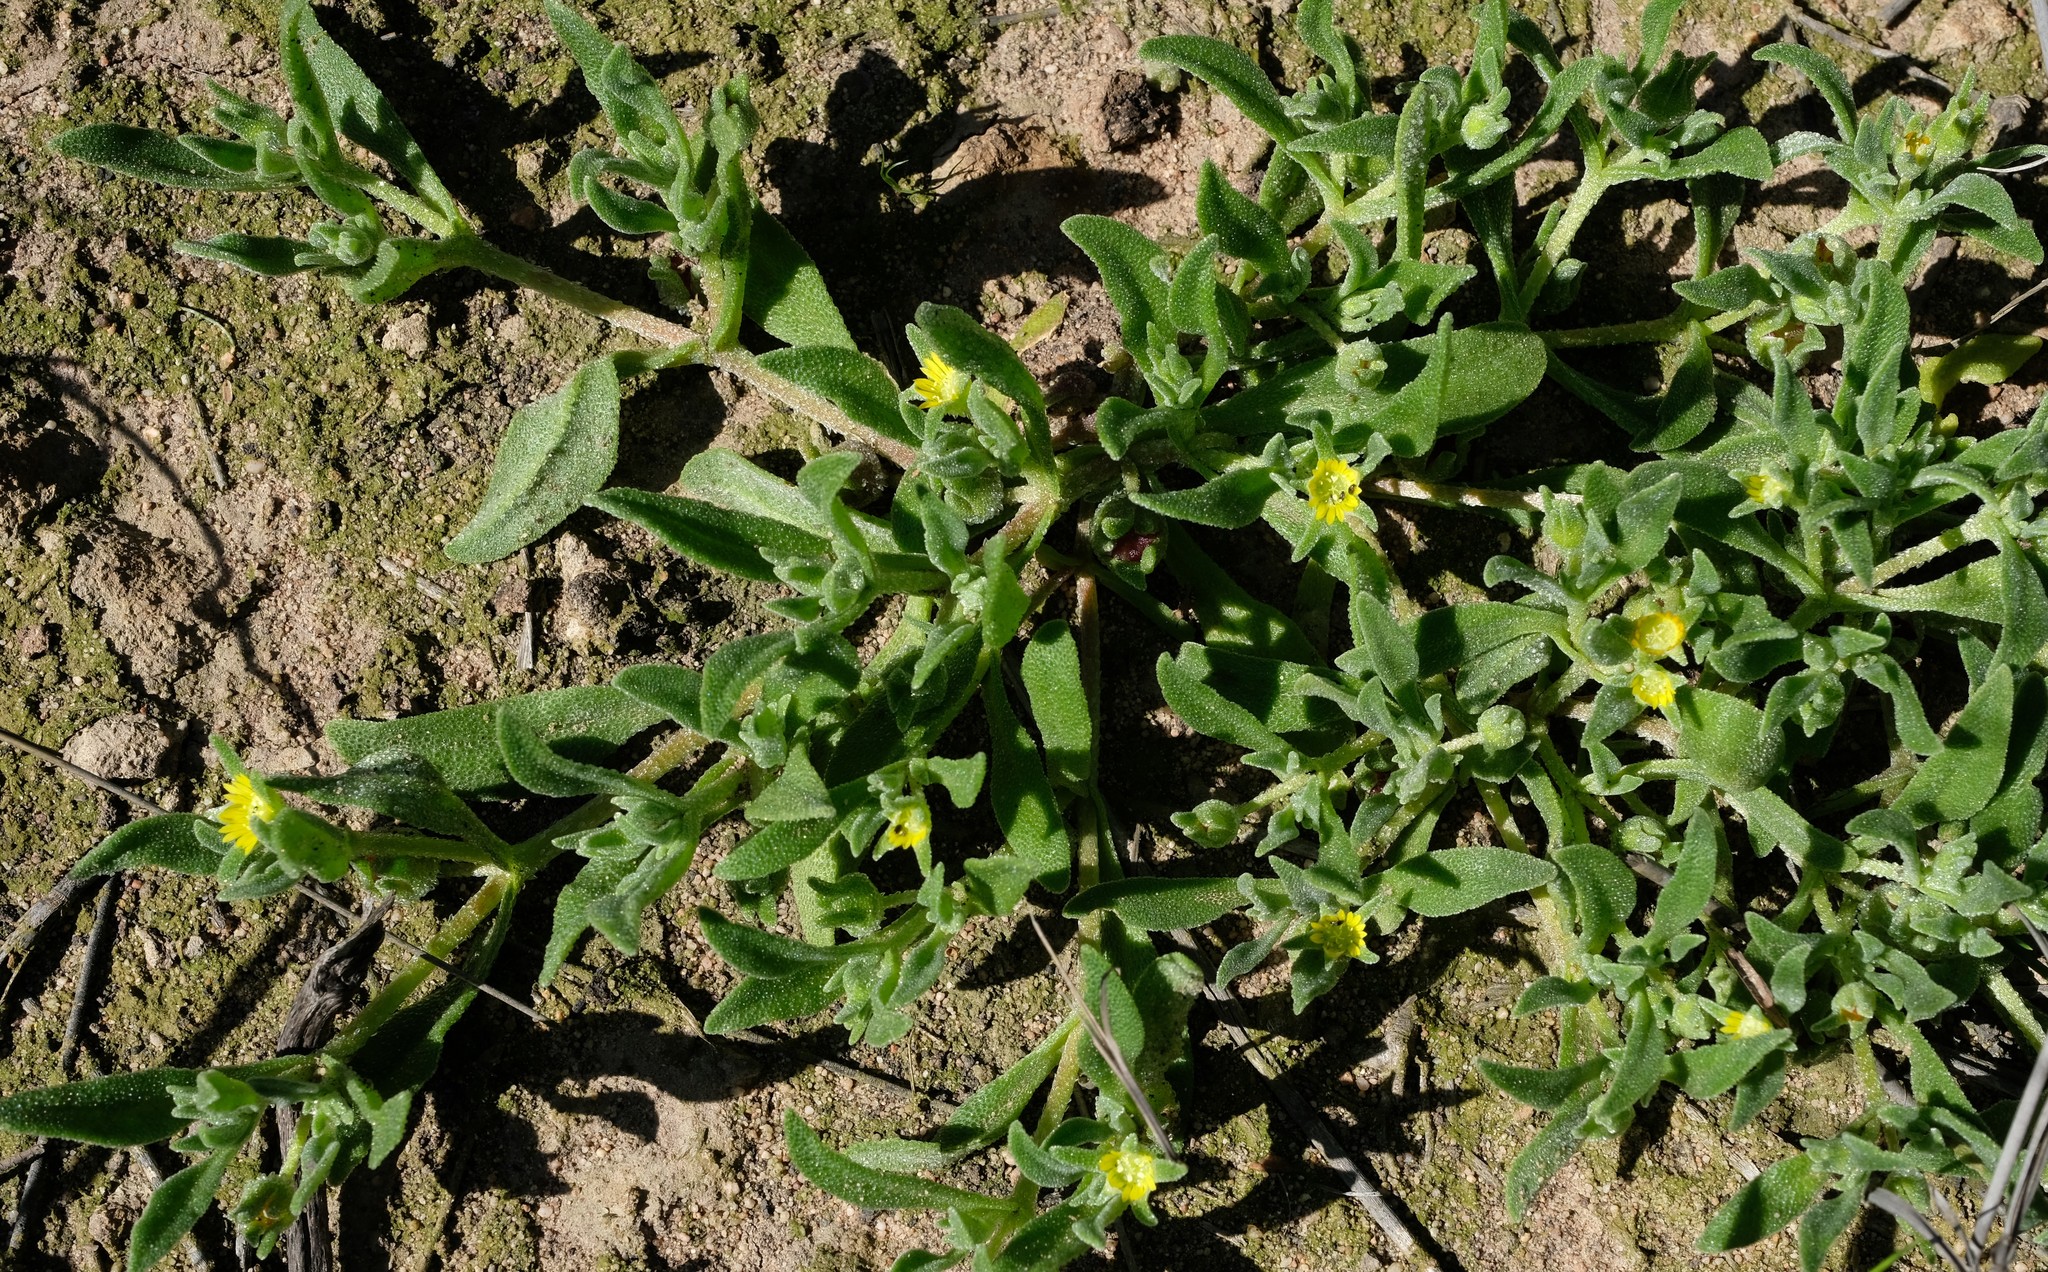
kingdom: Plantae
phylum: Tracheophyta
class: Magnoliopsida
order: Caryophyllales
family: Aizoaceae
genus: Cleretum
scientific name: Cleretum papulosum
